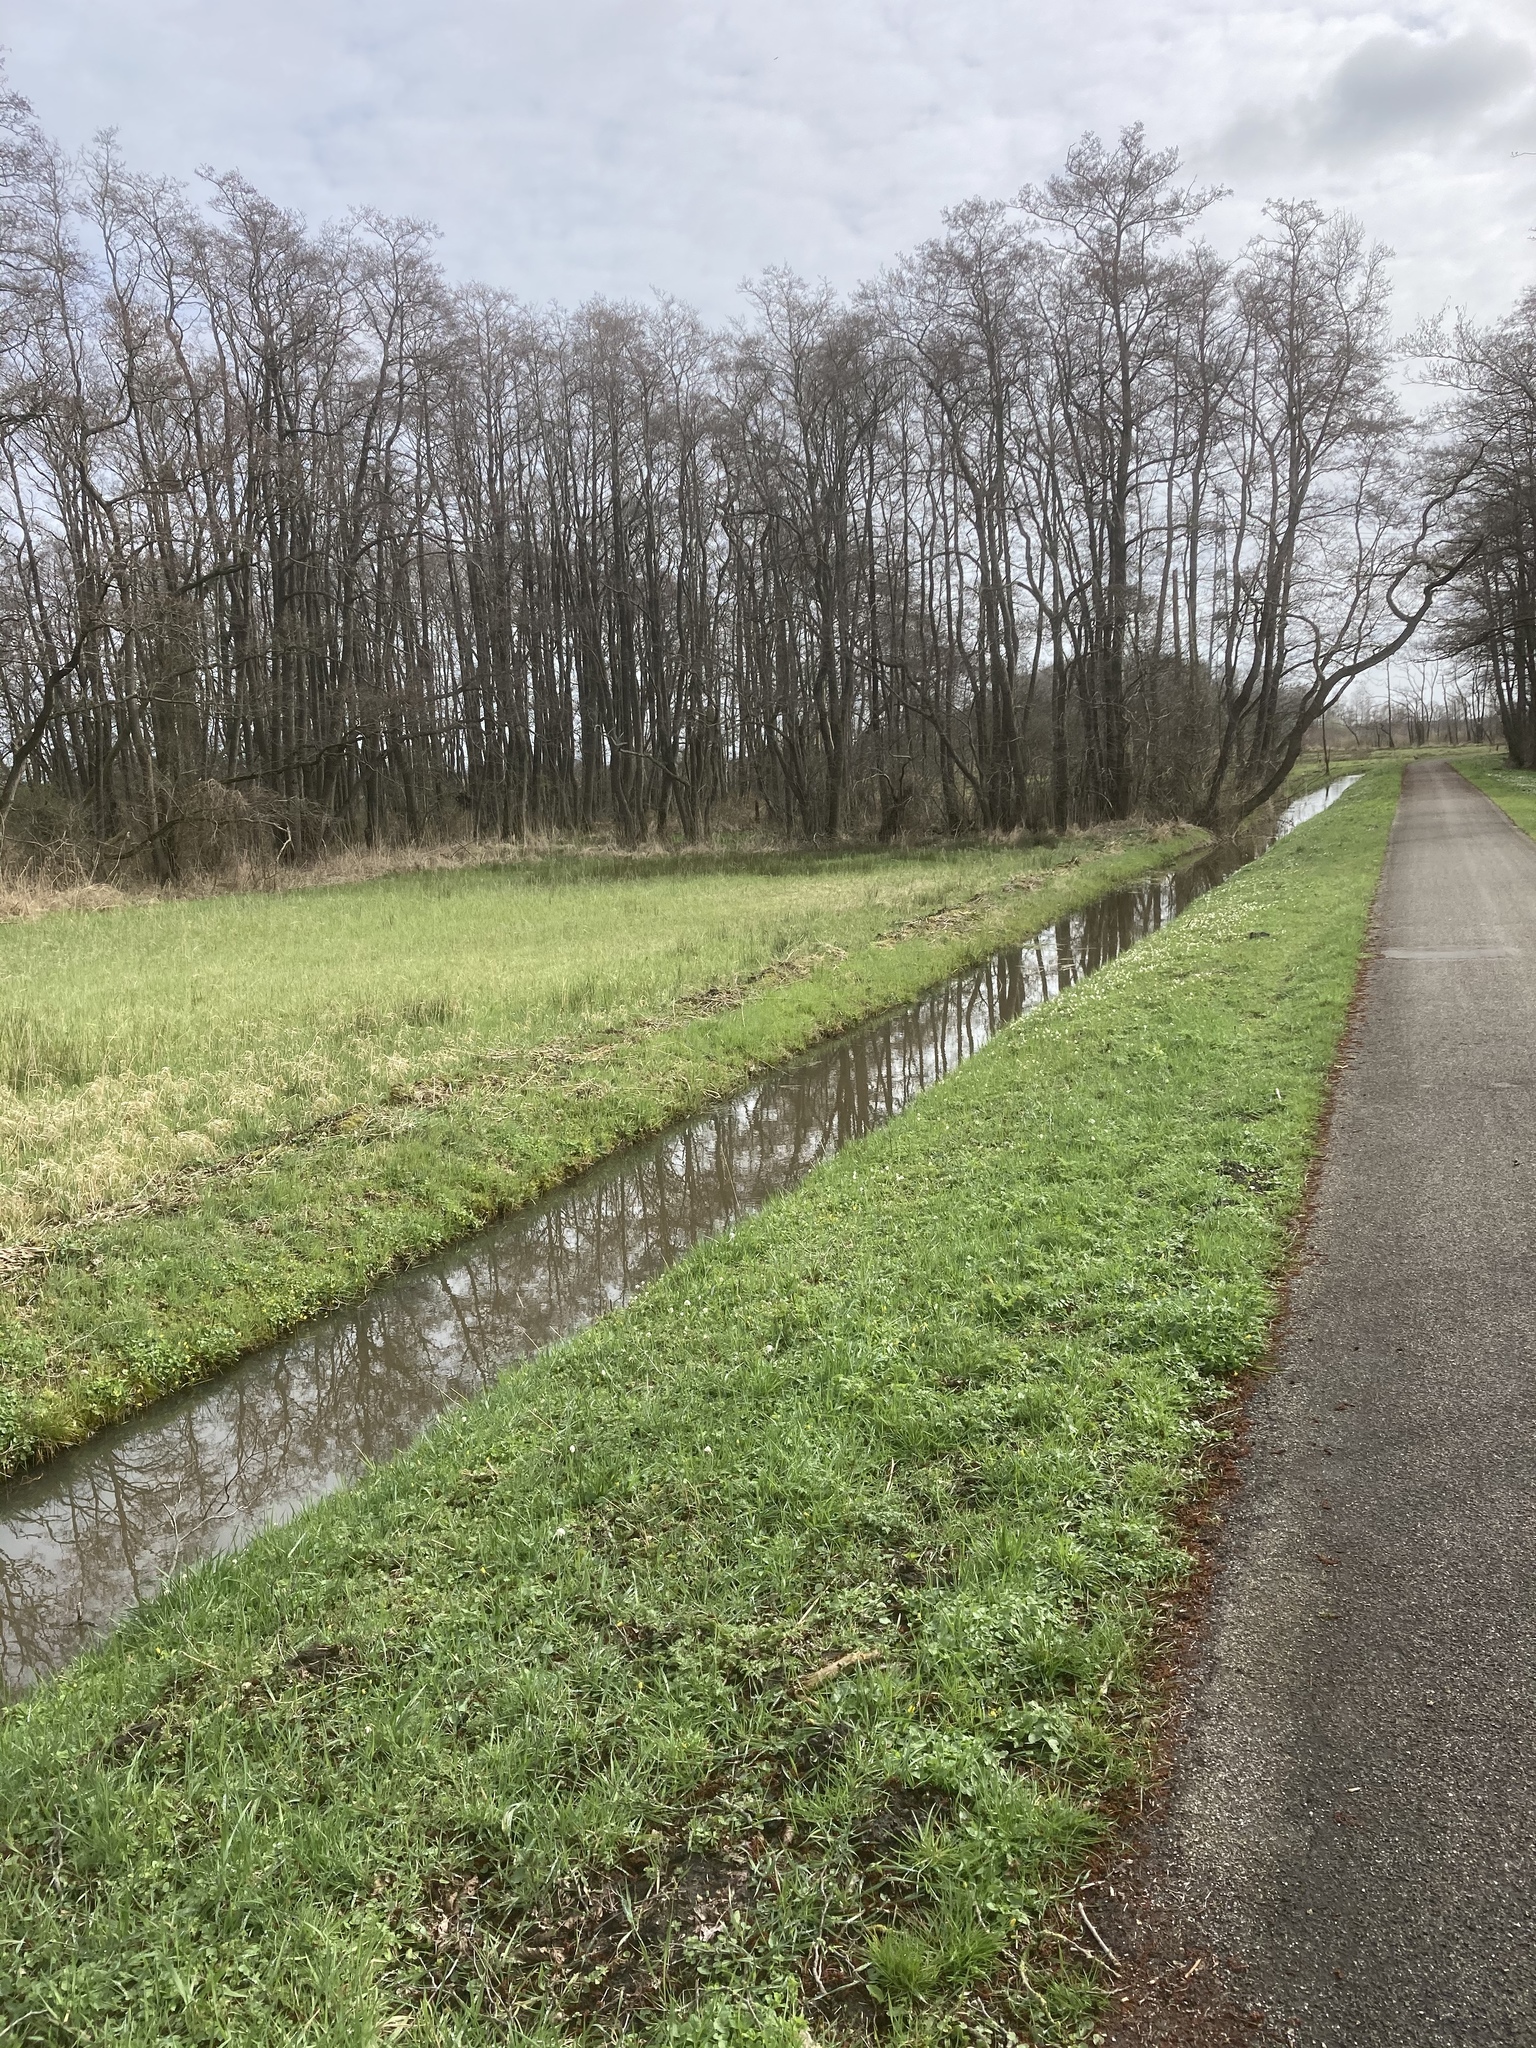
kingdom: Plantae
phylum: Tracheophyta
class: Magnoliopsida
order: Ranunculales
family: Ranunculaceae
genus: Anemone
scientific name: Anemone nemorosa
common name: Wood anemone
